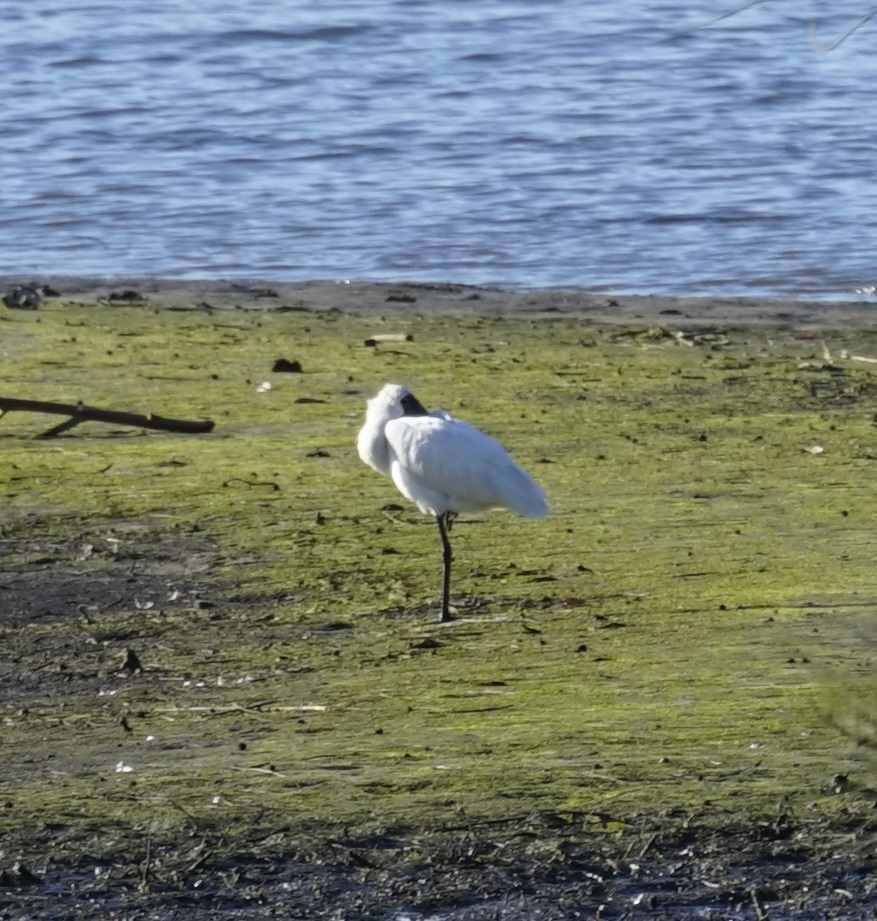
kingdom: Animalia
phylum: Chordata
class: Aves
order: Pelecaniformes
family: Threskiornithidae
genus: Platalea
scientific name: Platalea regia
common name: Royal spoonbill
